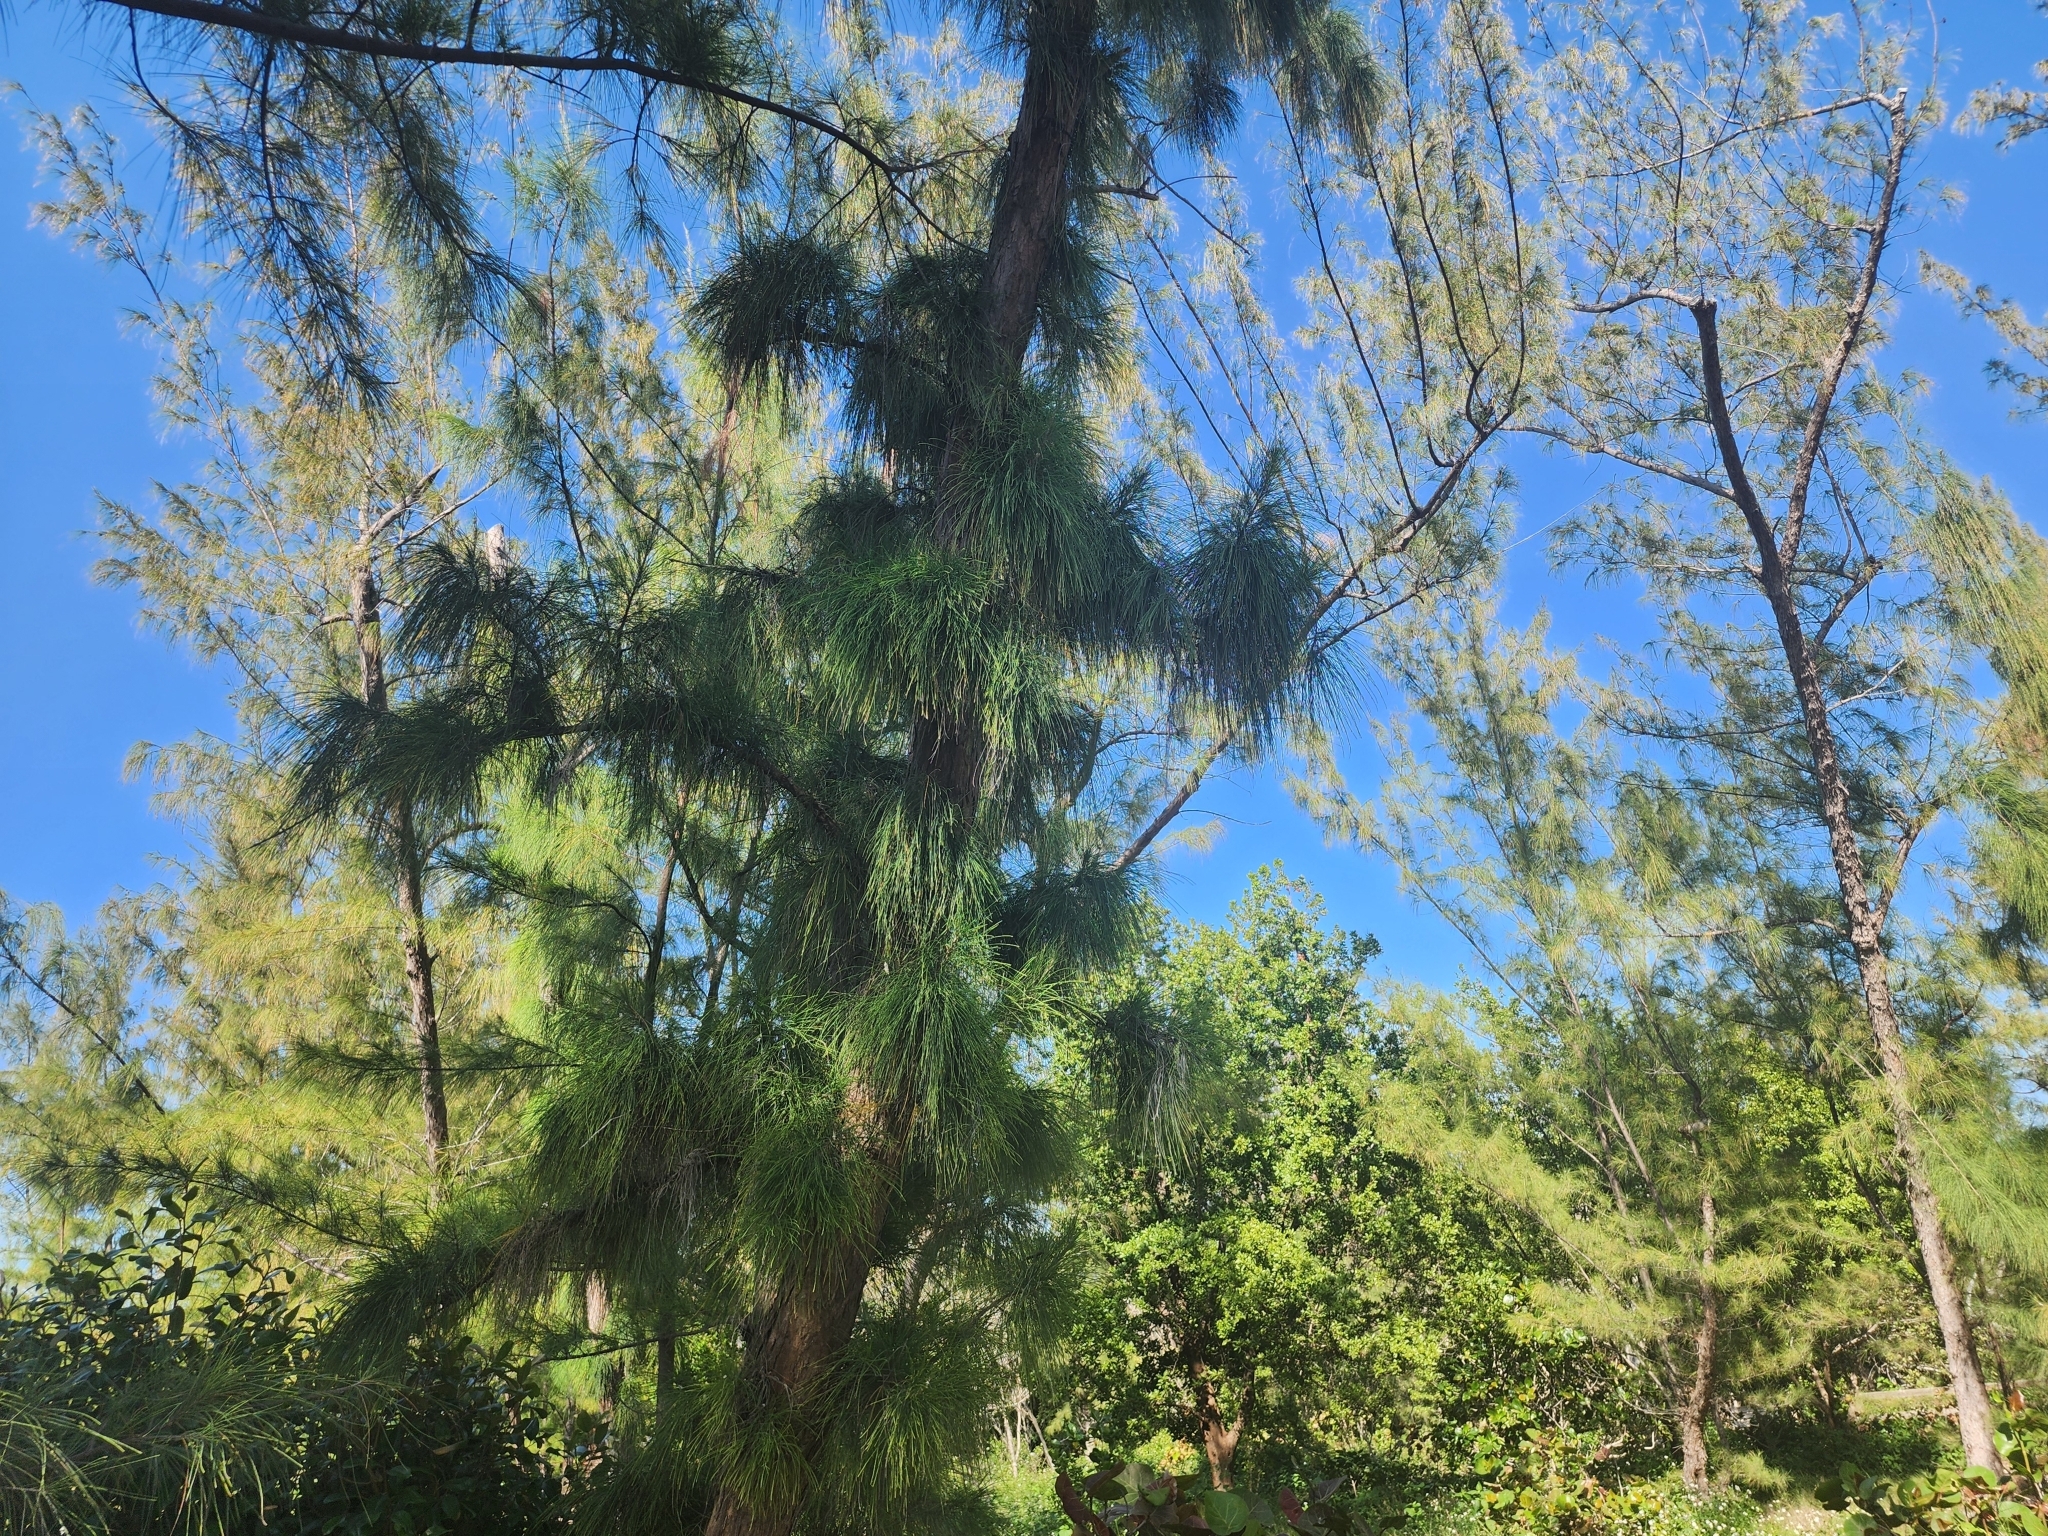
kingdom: Plantae
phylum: Tracheophyta
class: Magnoliopsida
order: Fagales
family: Casuarinaceae
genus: Casuarina
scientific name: Casuarina equisetifolia
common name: Beach sheoak
